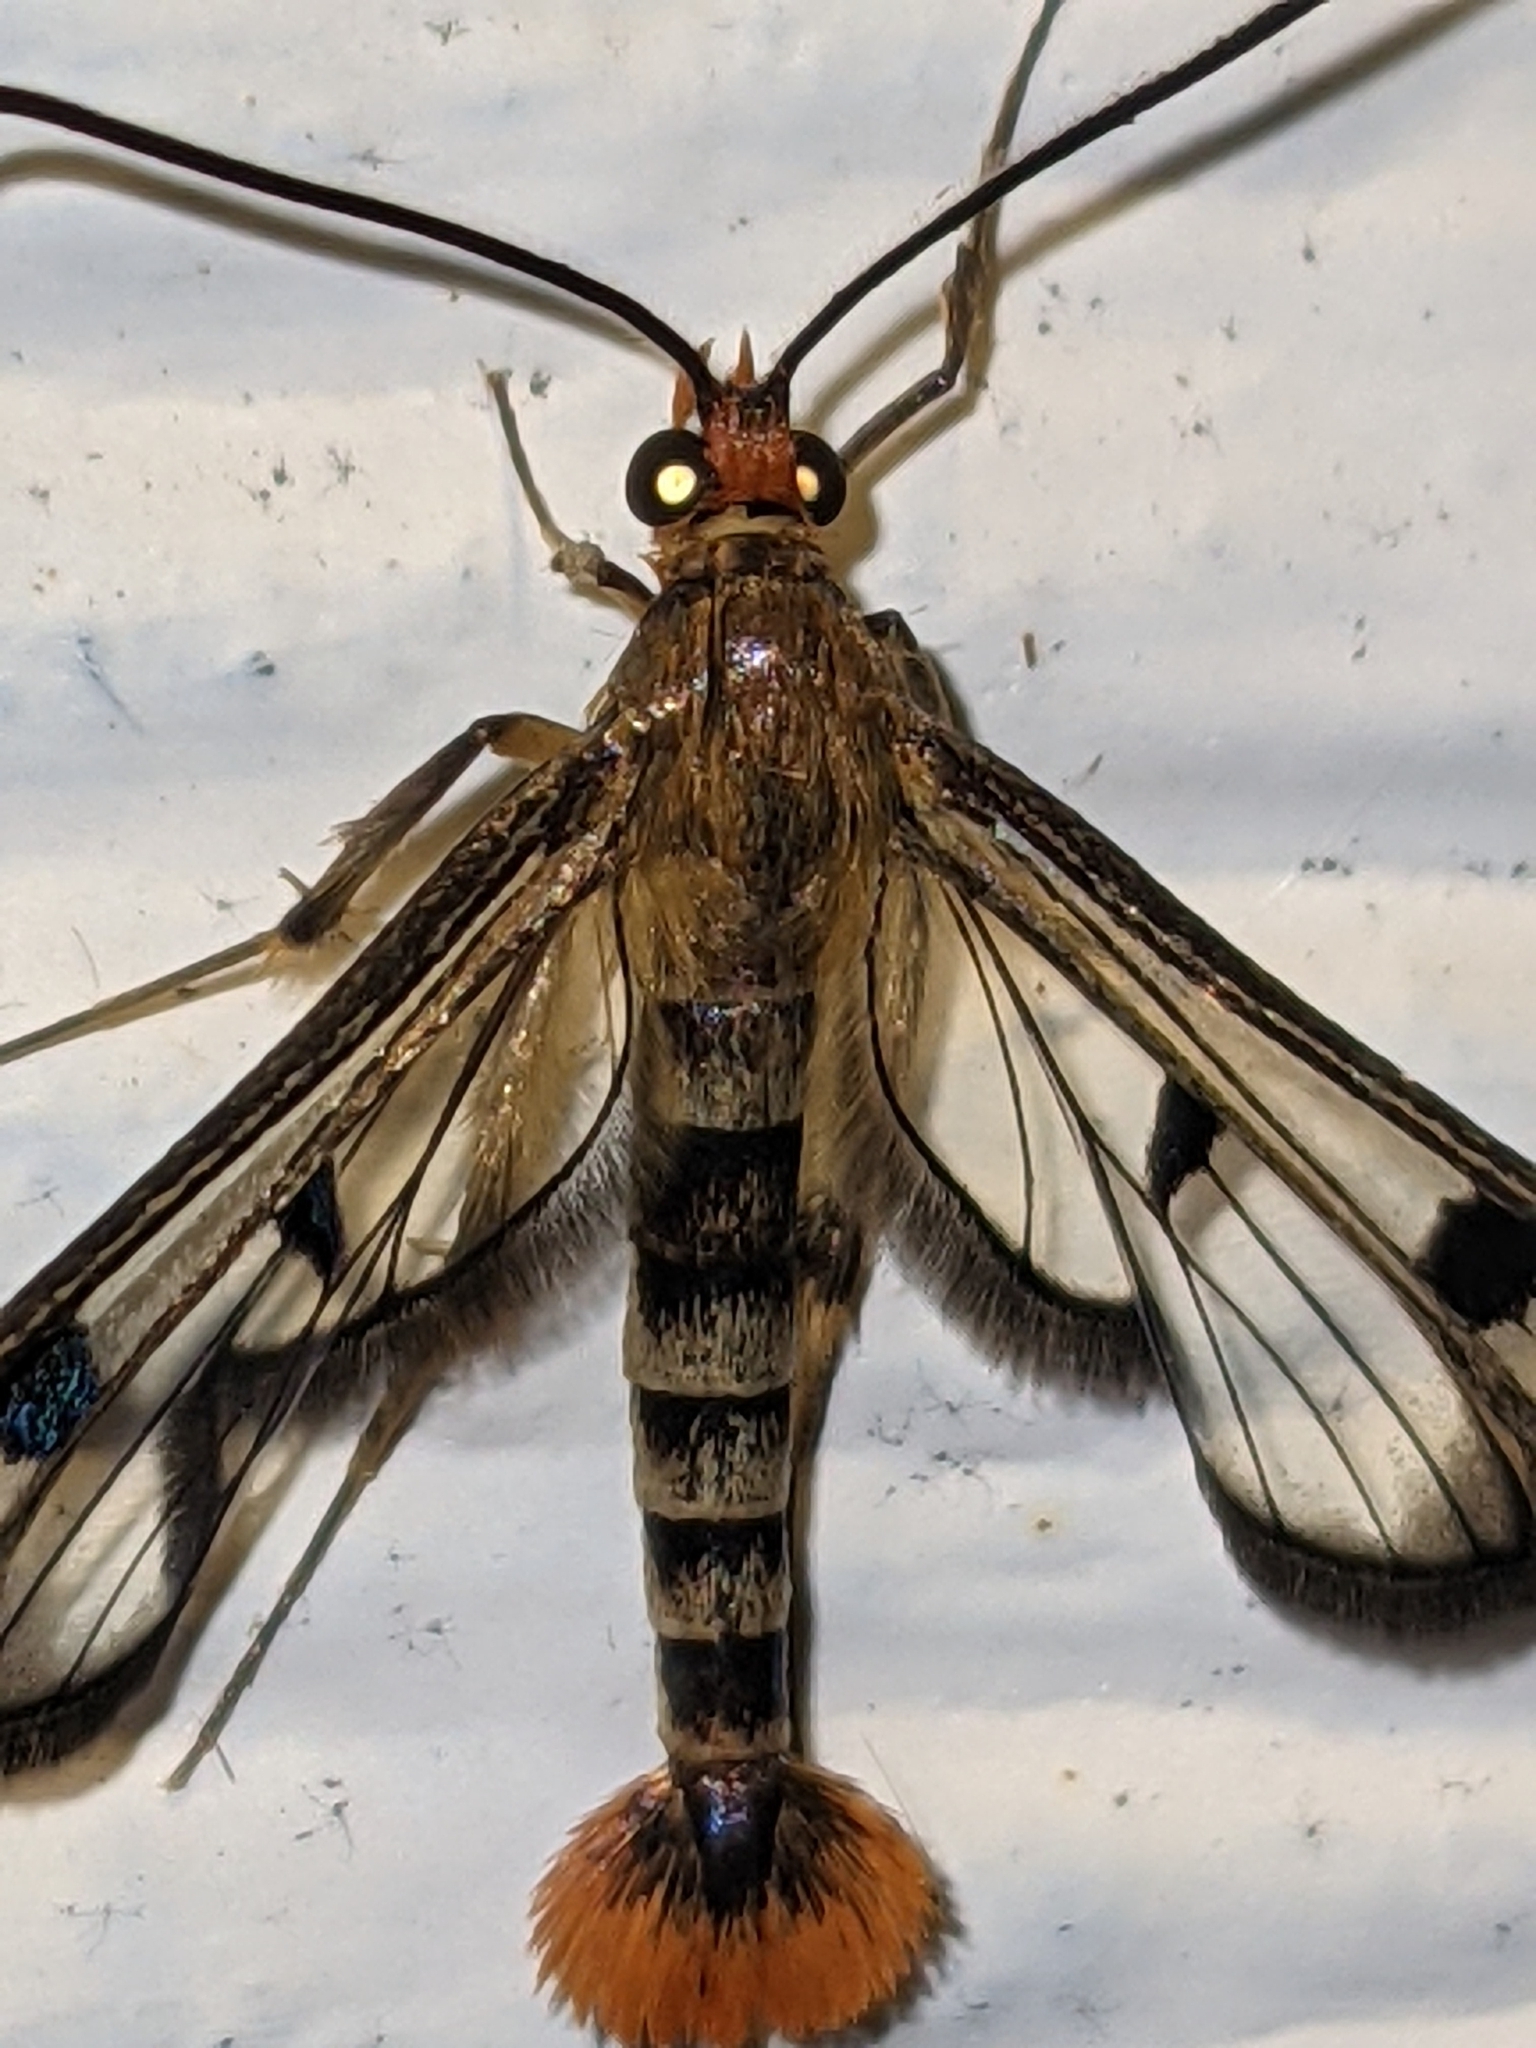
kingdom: Animalia
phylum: Arthropoda
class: Insecta
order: Lepidoptera
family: Sesiidae
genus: Synanthedon
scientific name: Synanthedon acerni
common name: Maple callus borer moth
